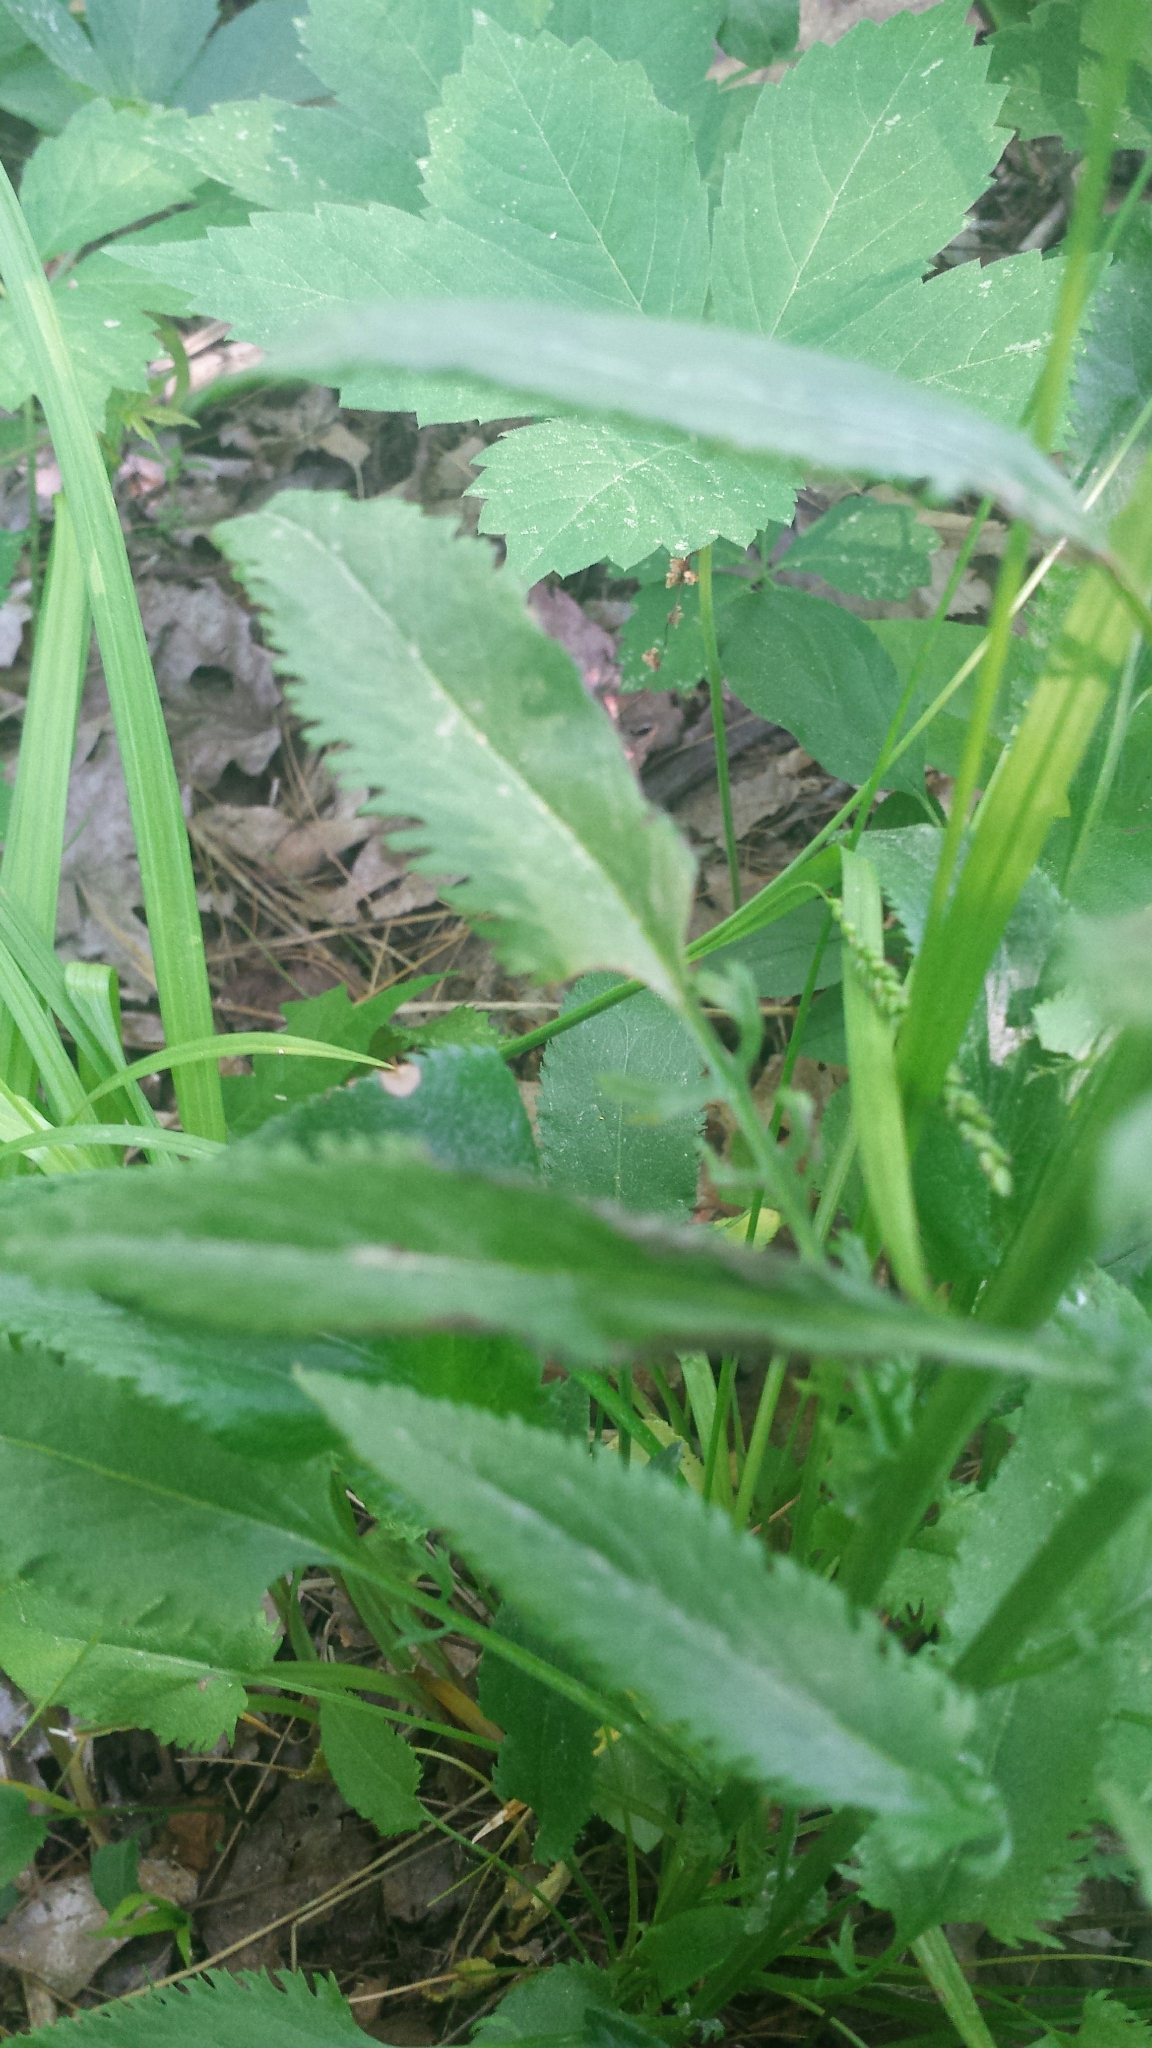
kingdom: Plantae
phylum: Tracheophyta
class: Magnoliopsida
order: Asterales
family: Asteraceae
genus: Packera
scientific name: Packera schweinitziana
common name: Schweinitz's ragwort
